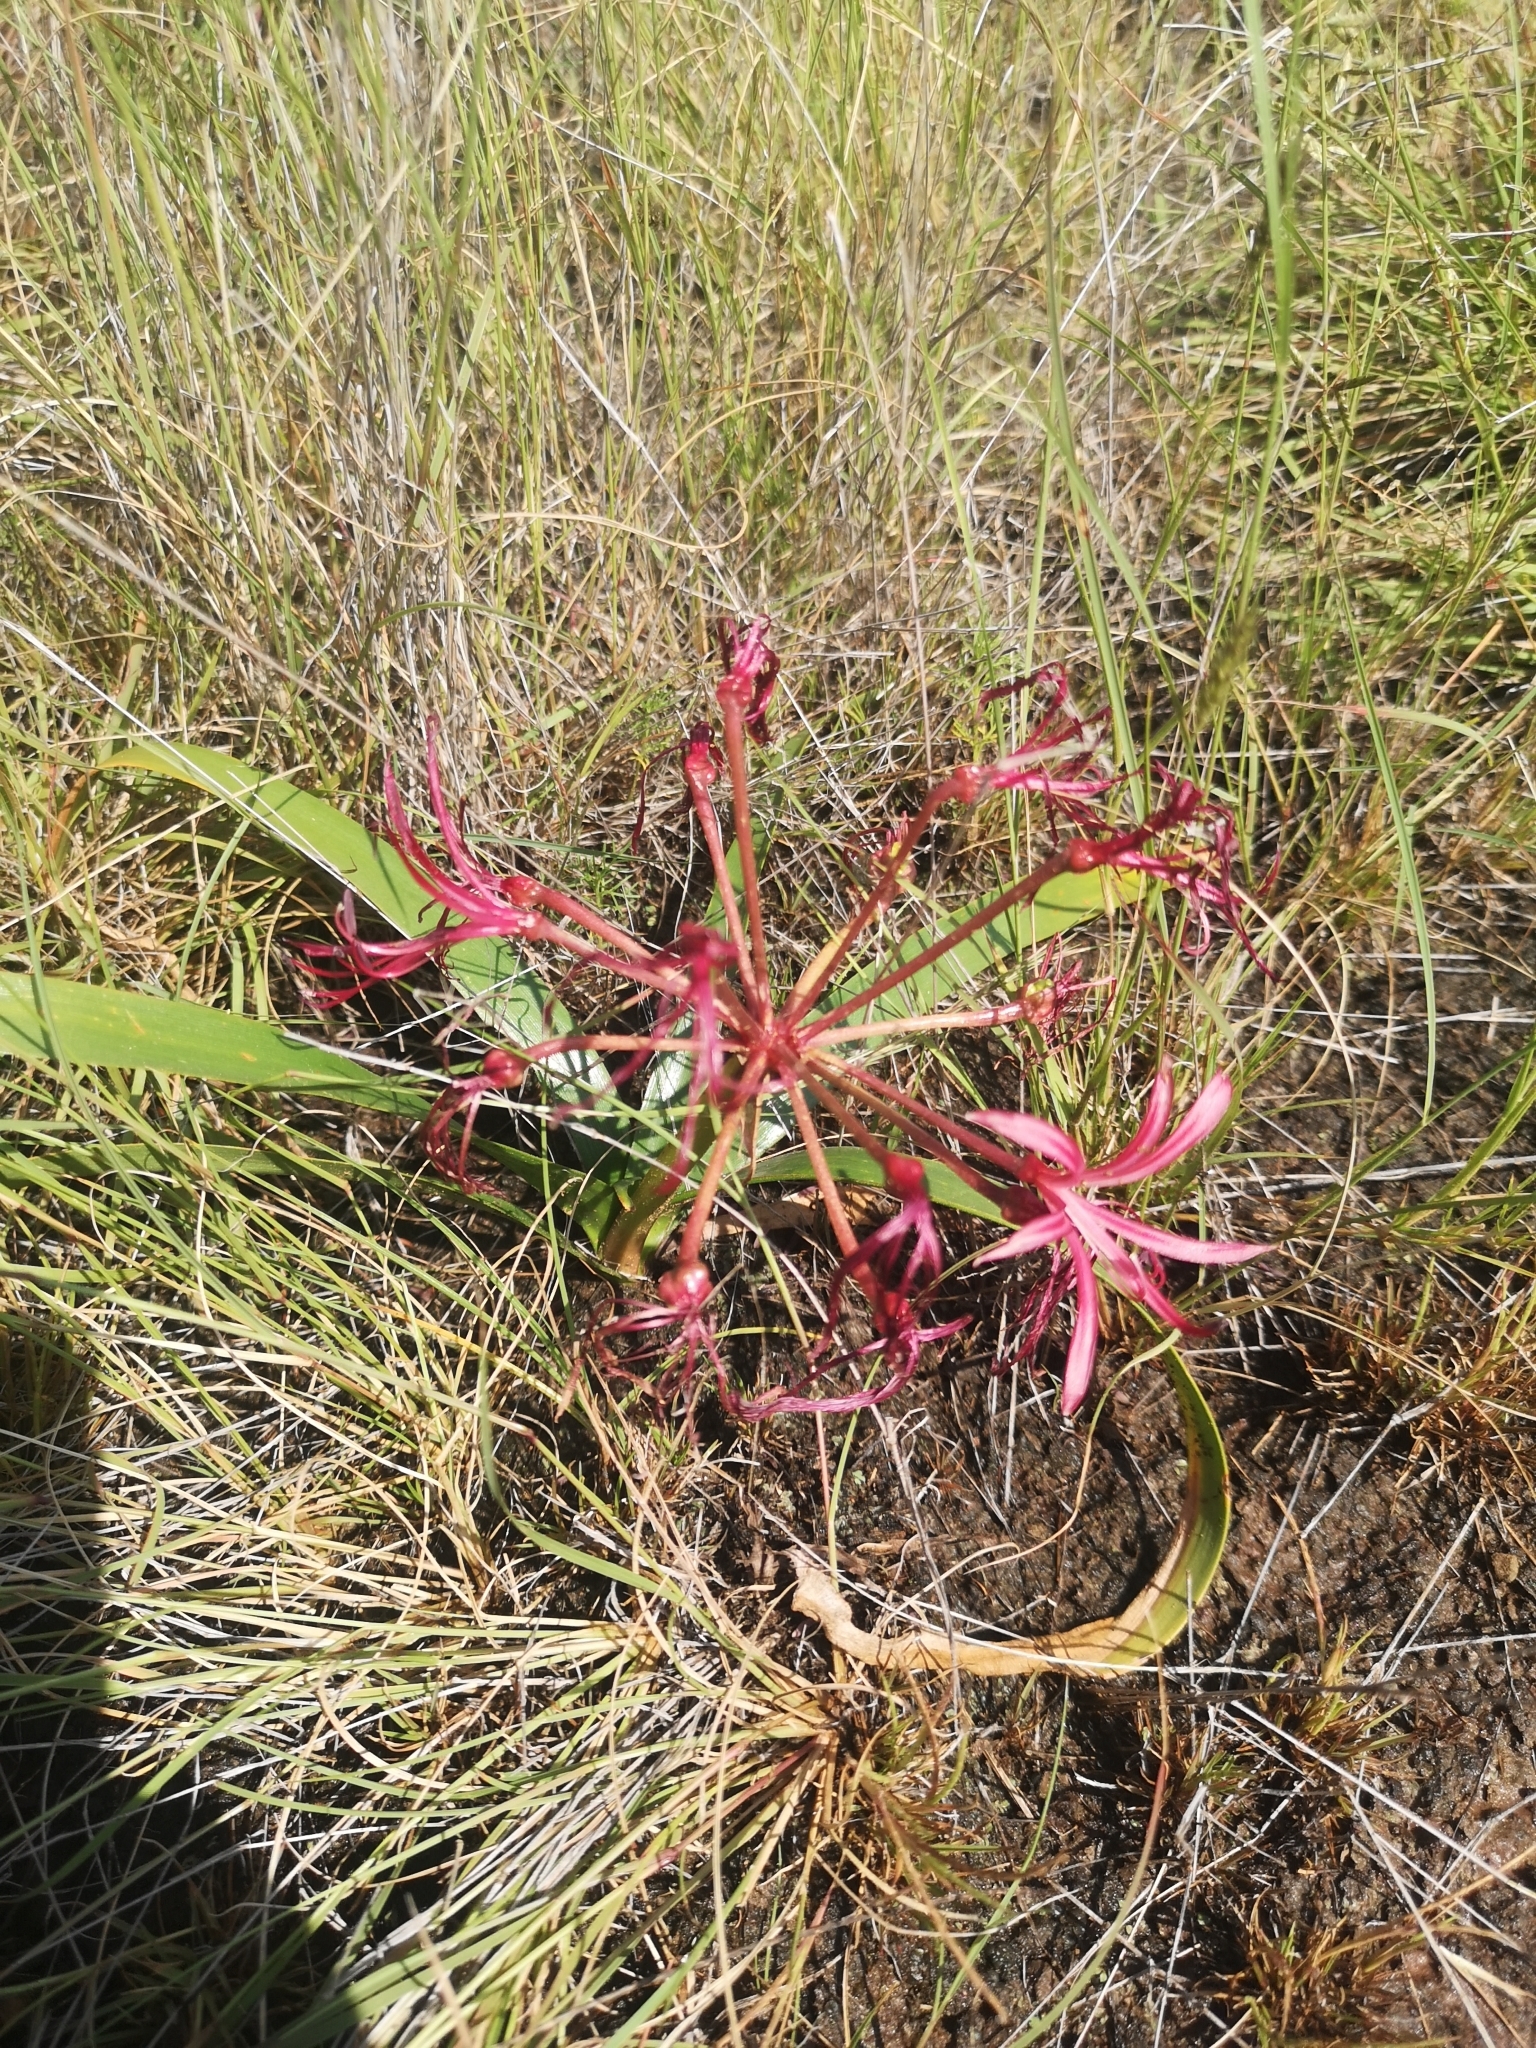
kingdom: Plantae
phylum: Tracheophyta
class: Liliopsida
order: Asparagales
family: Amaryllidaceae
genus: Nerine
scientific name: Nerine laticoma
